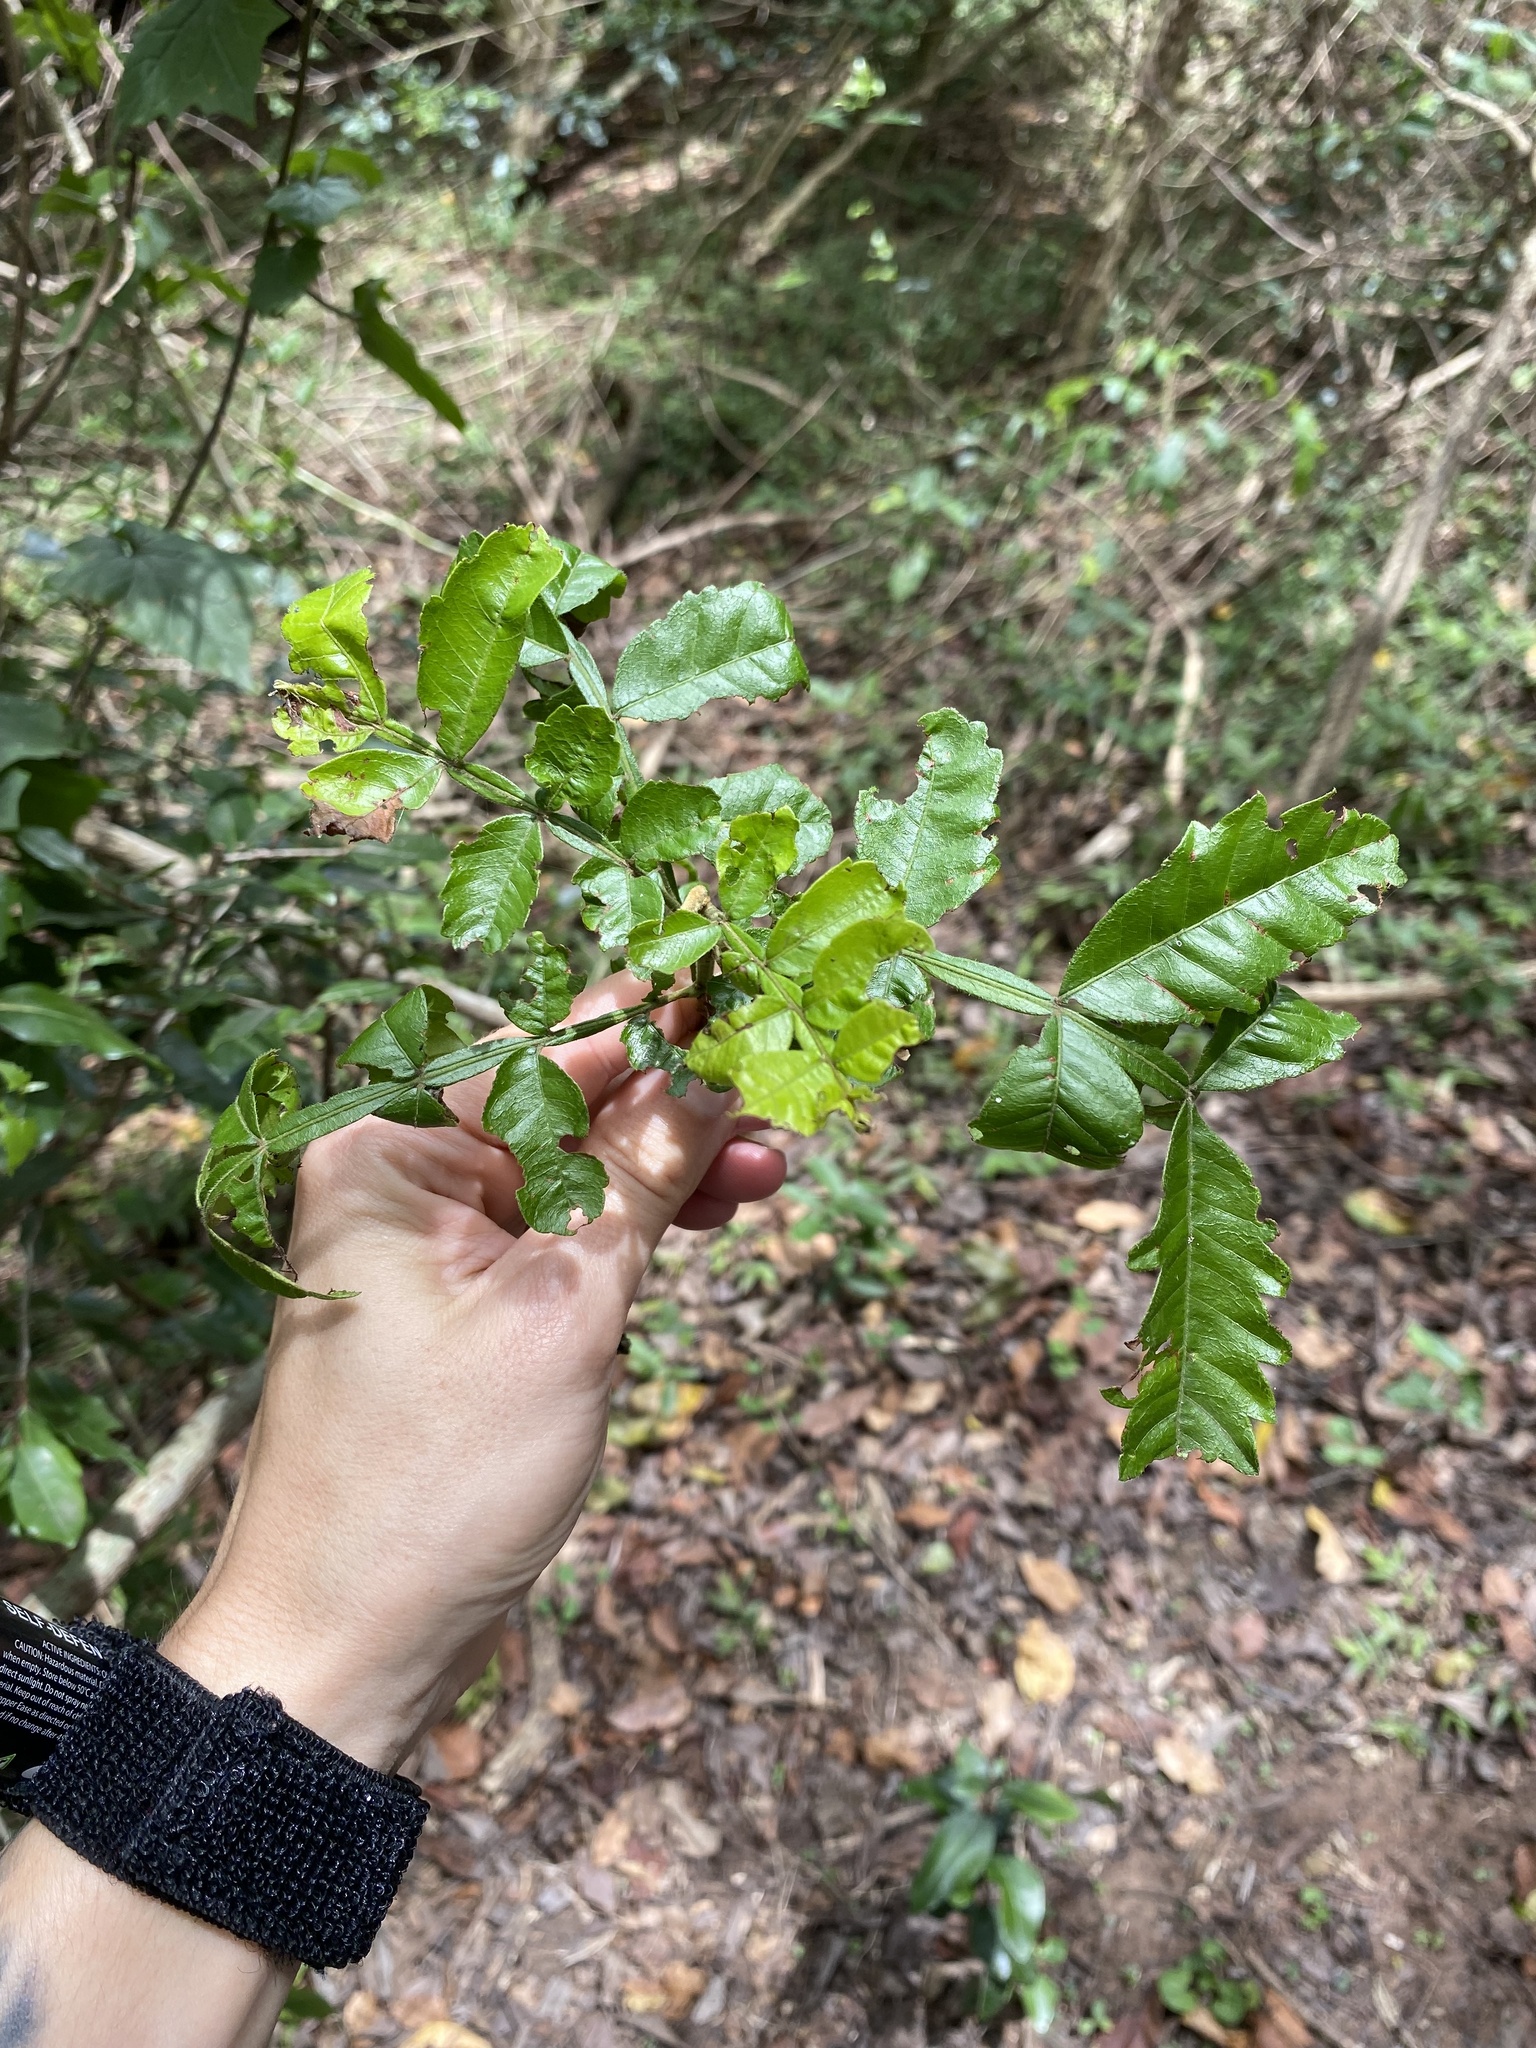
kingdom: Plantae
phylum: Tracheophyta
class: Magnoliopsida
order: Sapindales
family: Sapindaceae
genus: Hippobromus
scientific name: Hippobromus pauciflorus
